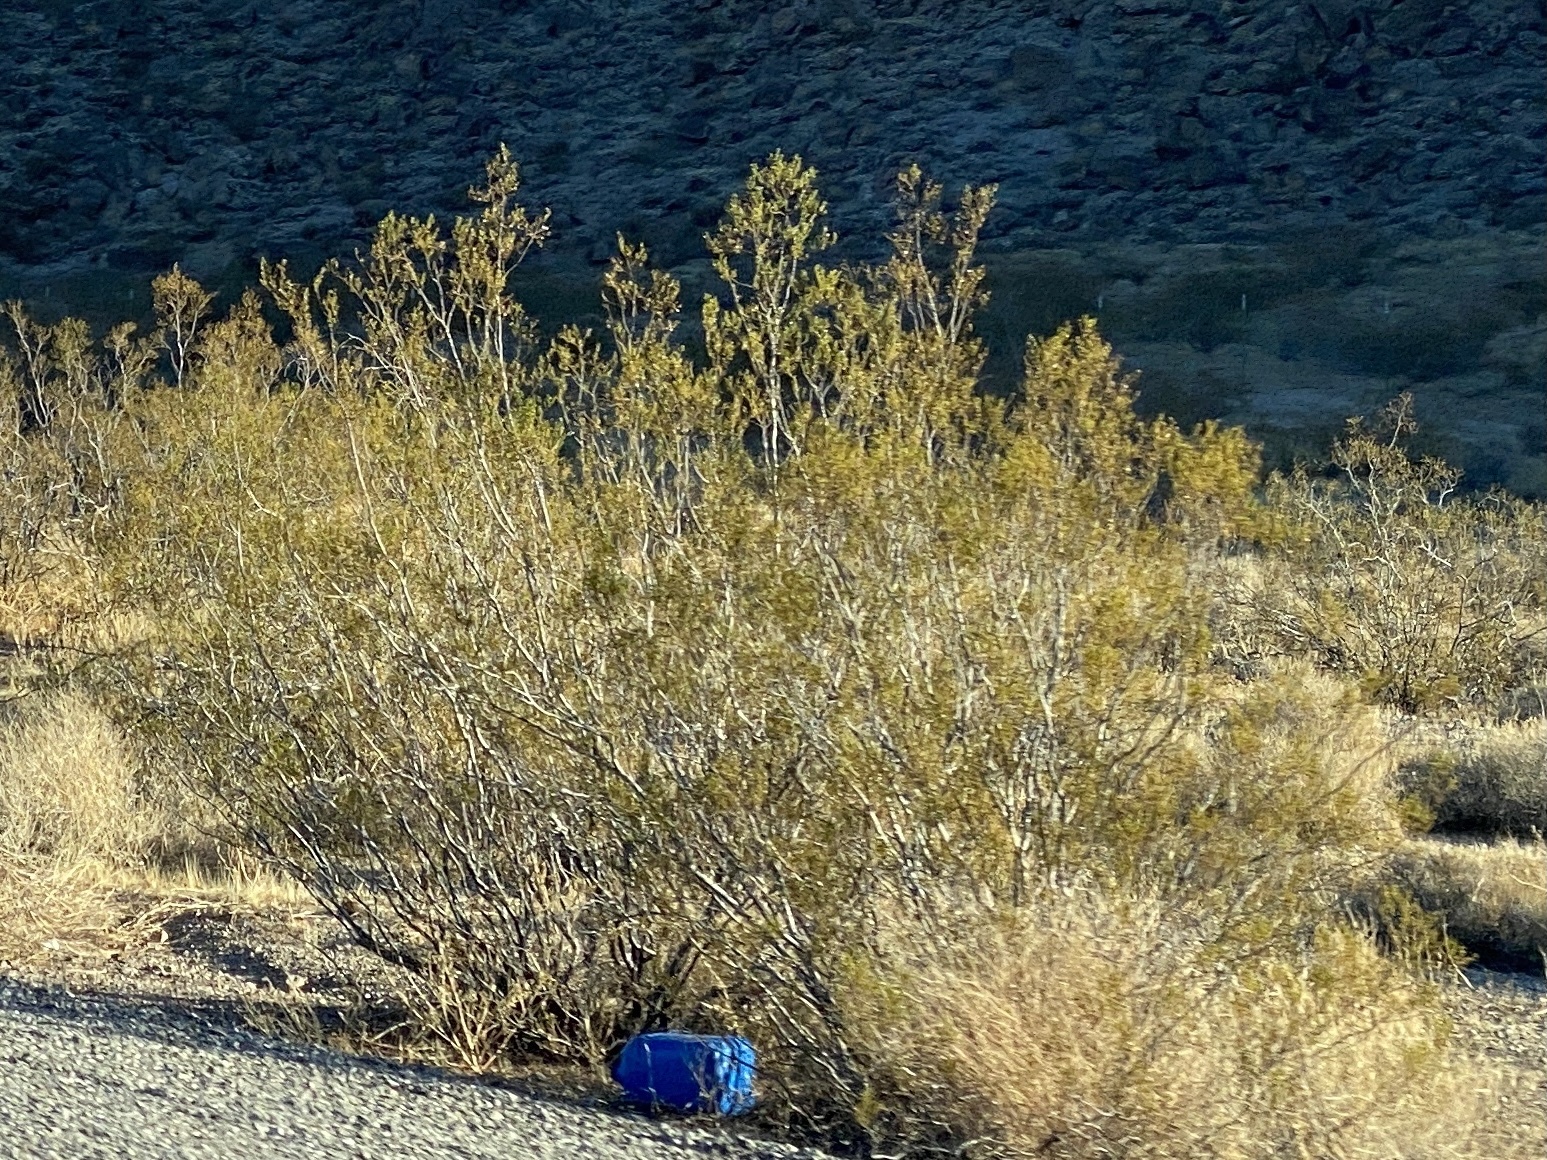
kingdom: Plantae
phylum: Tracheophyta
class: Magnoliopsida
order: Zygophyllales
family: Zygophyllaceae
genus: Larrea
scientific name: Larrea tridentata
